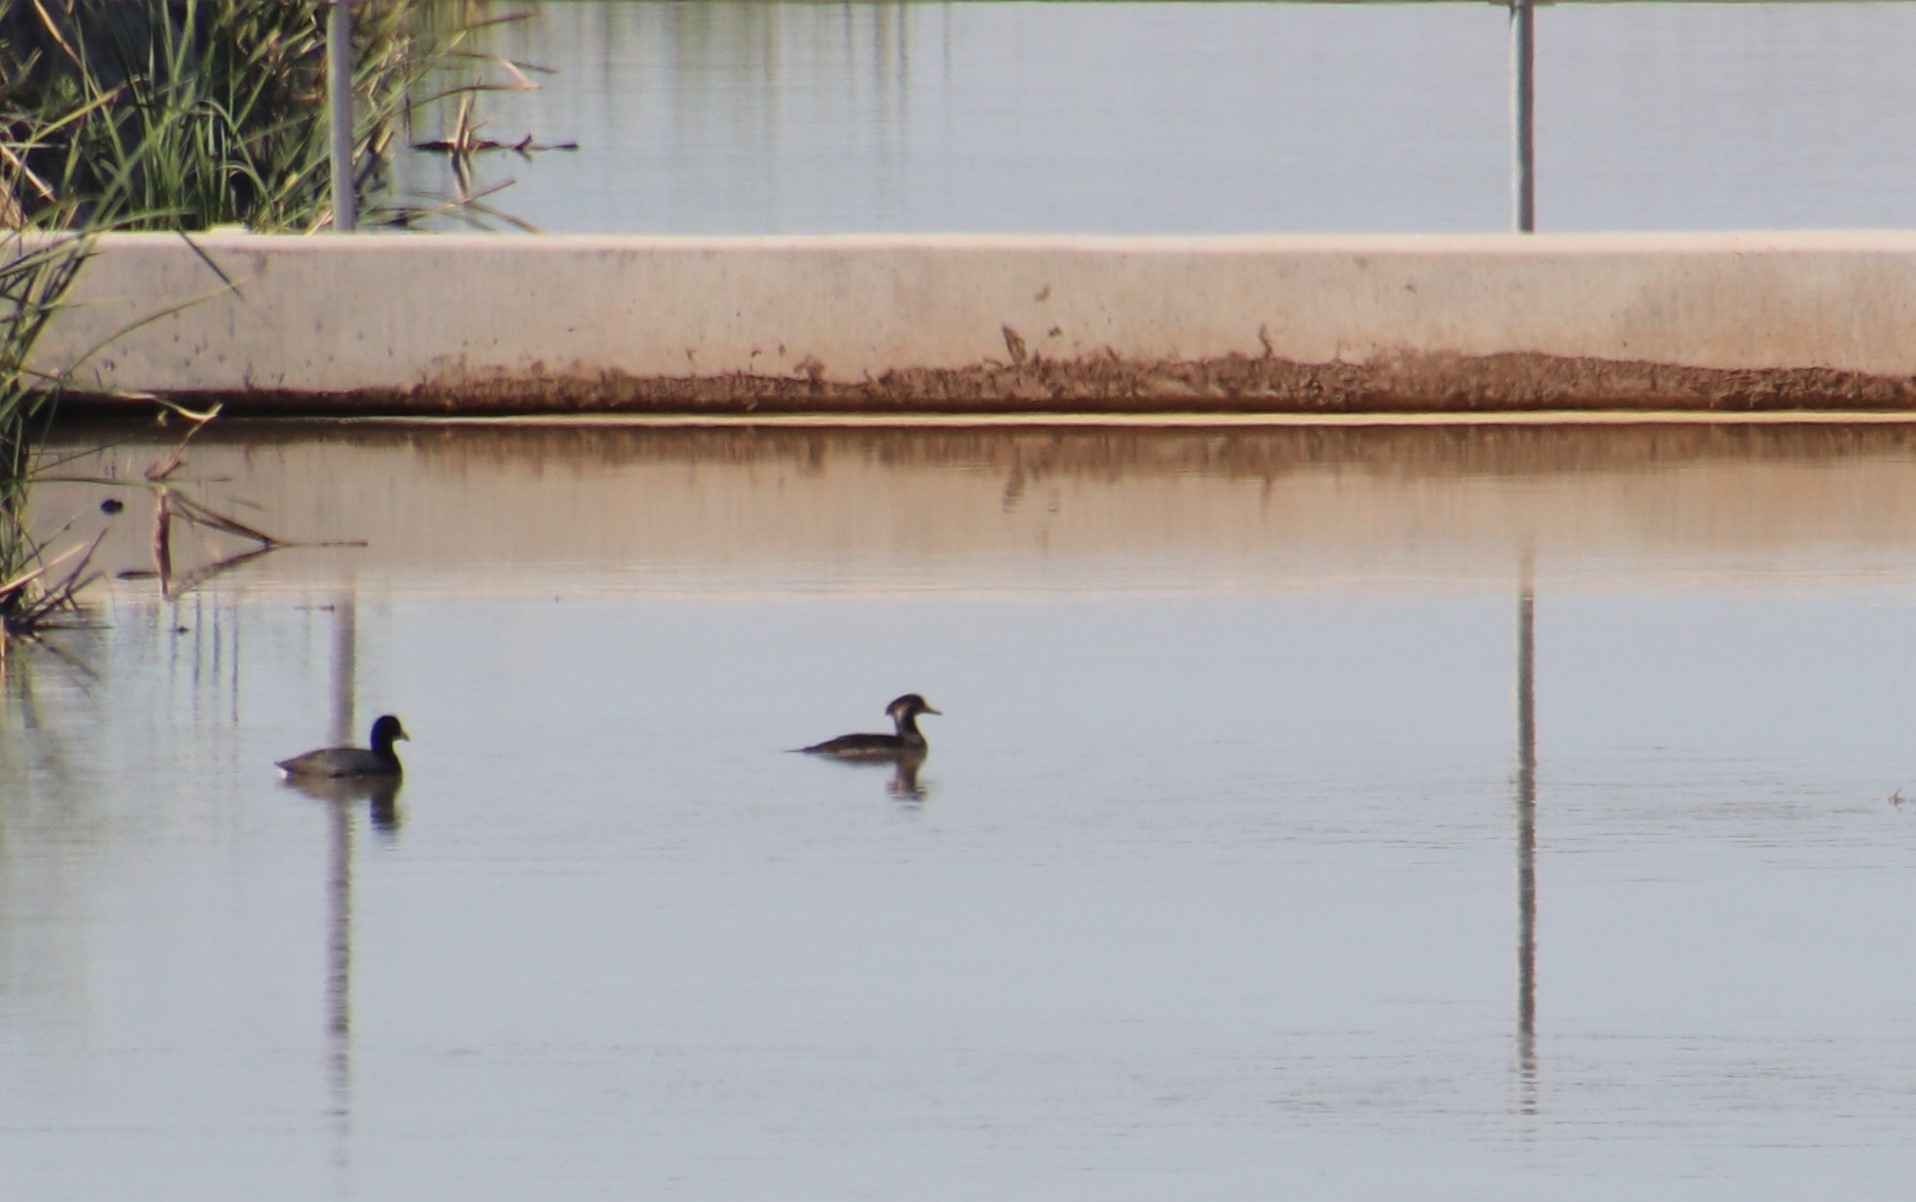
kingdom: Animalia
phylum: Chordata
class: Aves
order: Anseriformes
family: Anatidae
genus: Lophodytes
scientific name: Lophodytes cucullatus
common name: Hooded merganser
